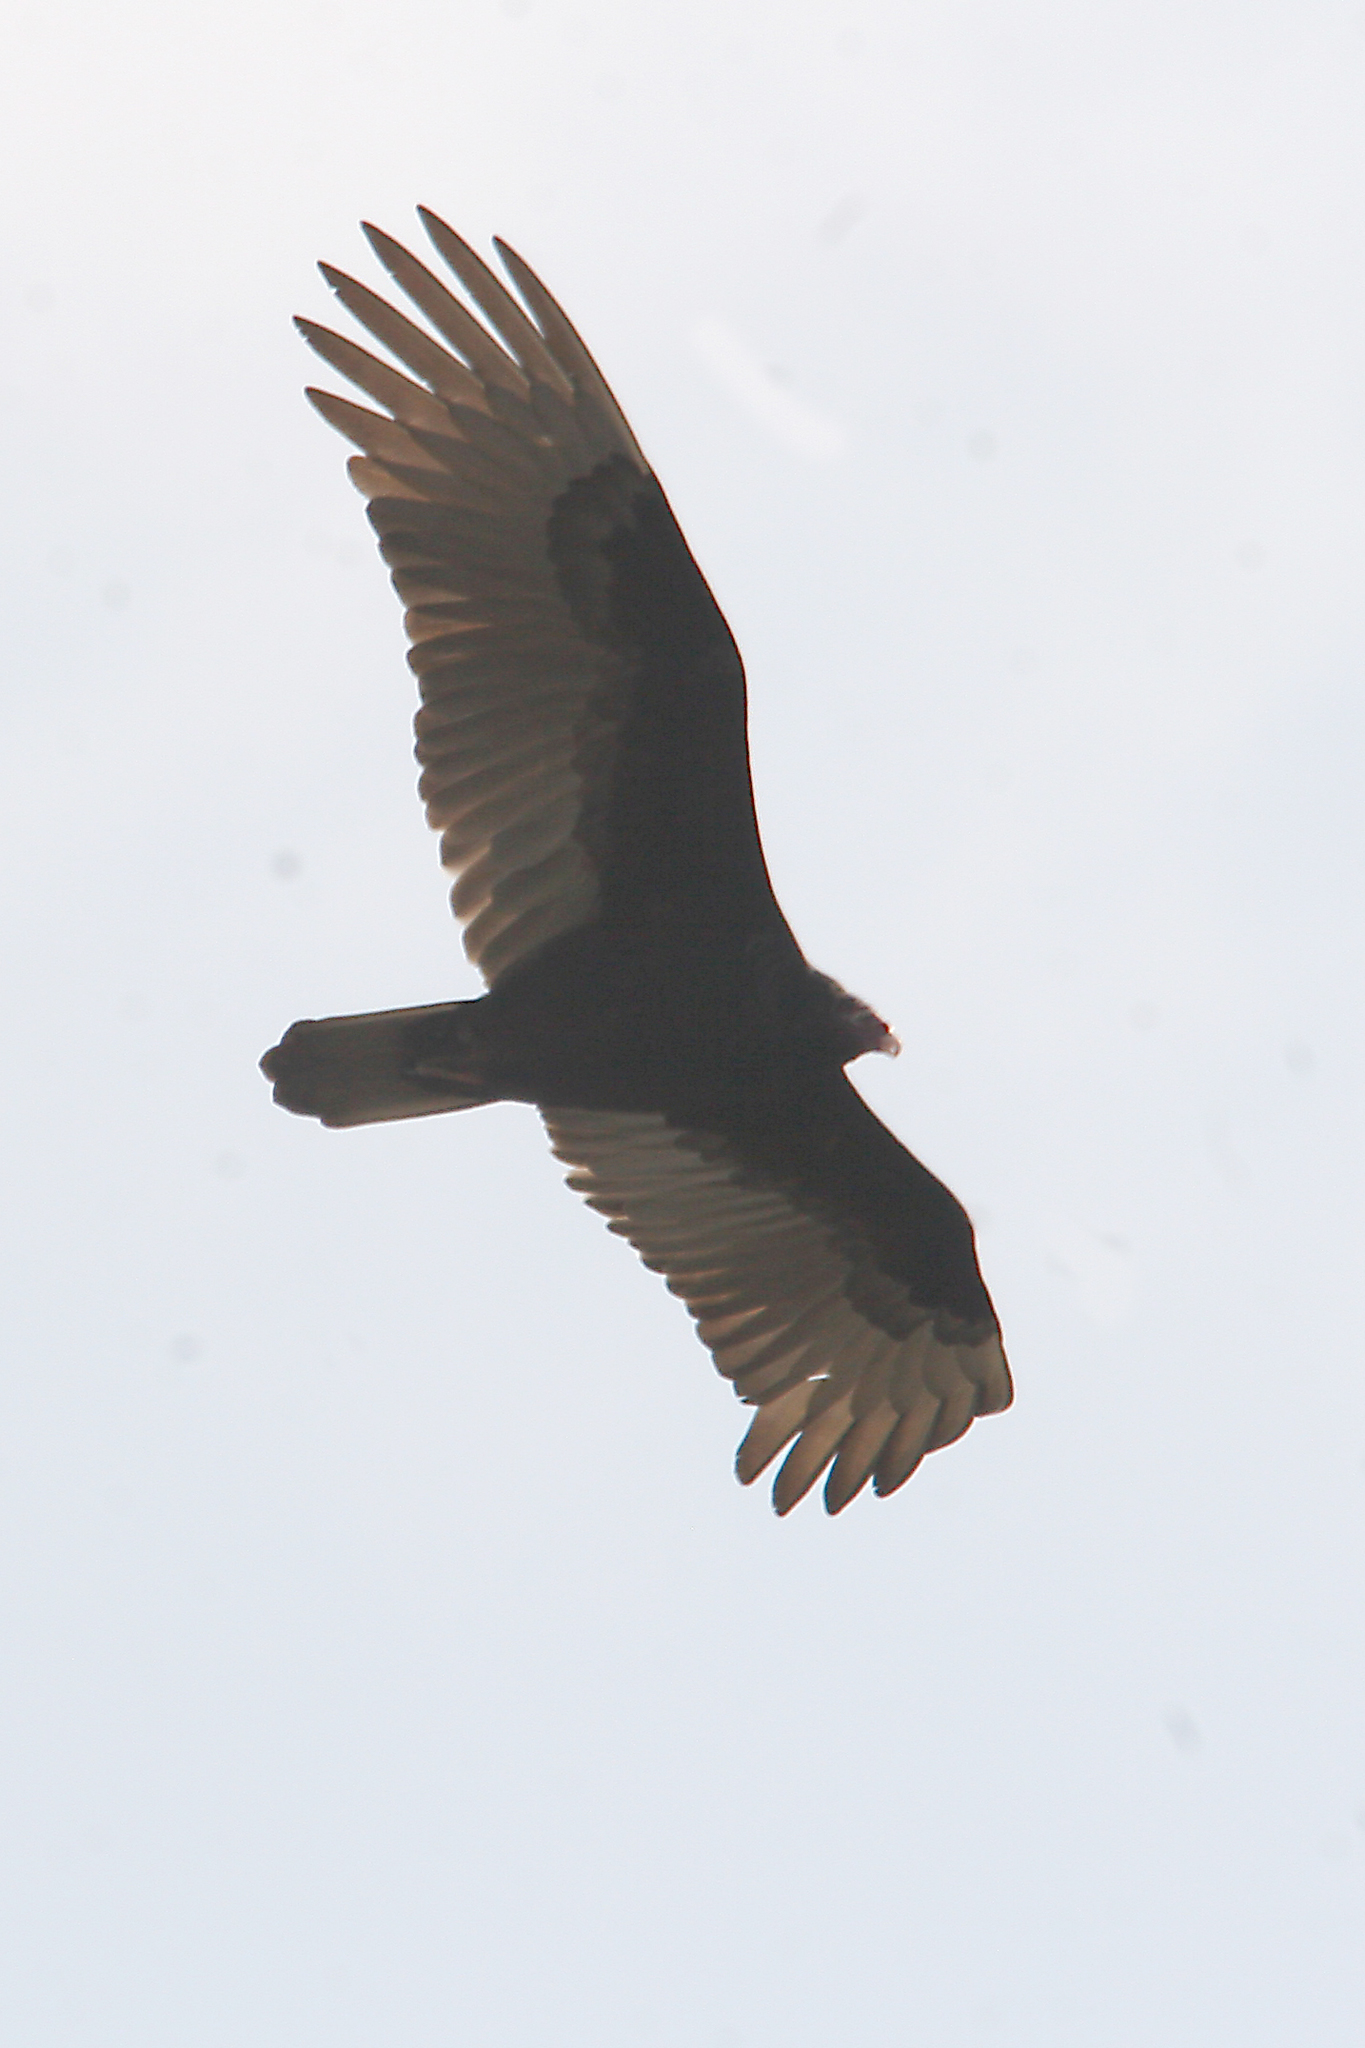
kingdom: Animalia
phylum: Chordata
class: Aves
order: Accipitriformes
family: Cathartidae
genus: Cathartes
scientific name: Cathartes aura
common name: Turkey vulture
